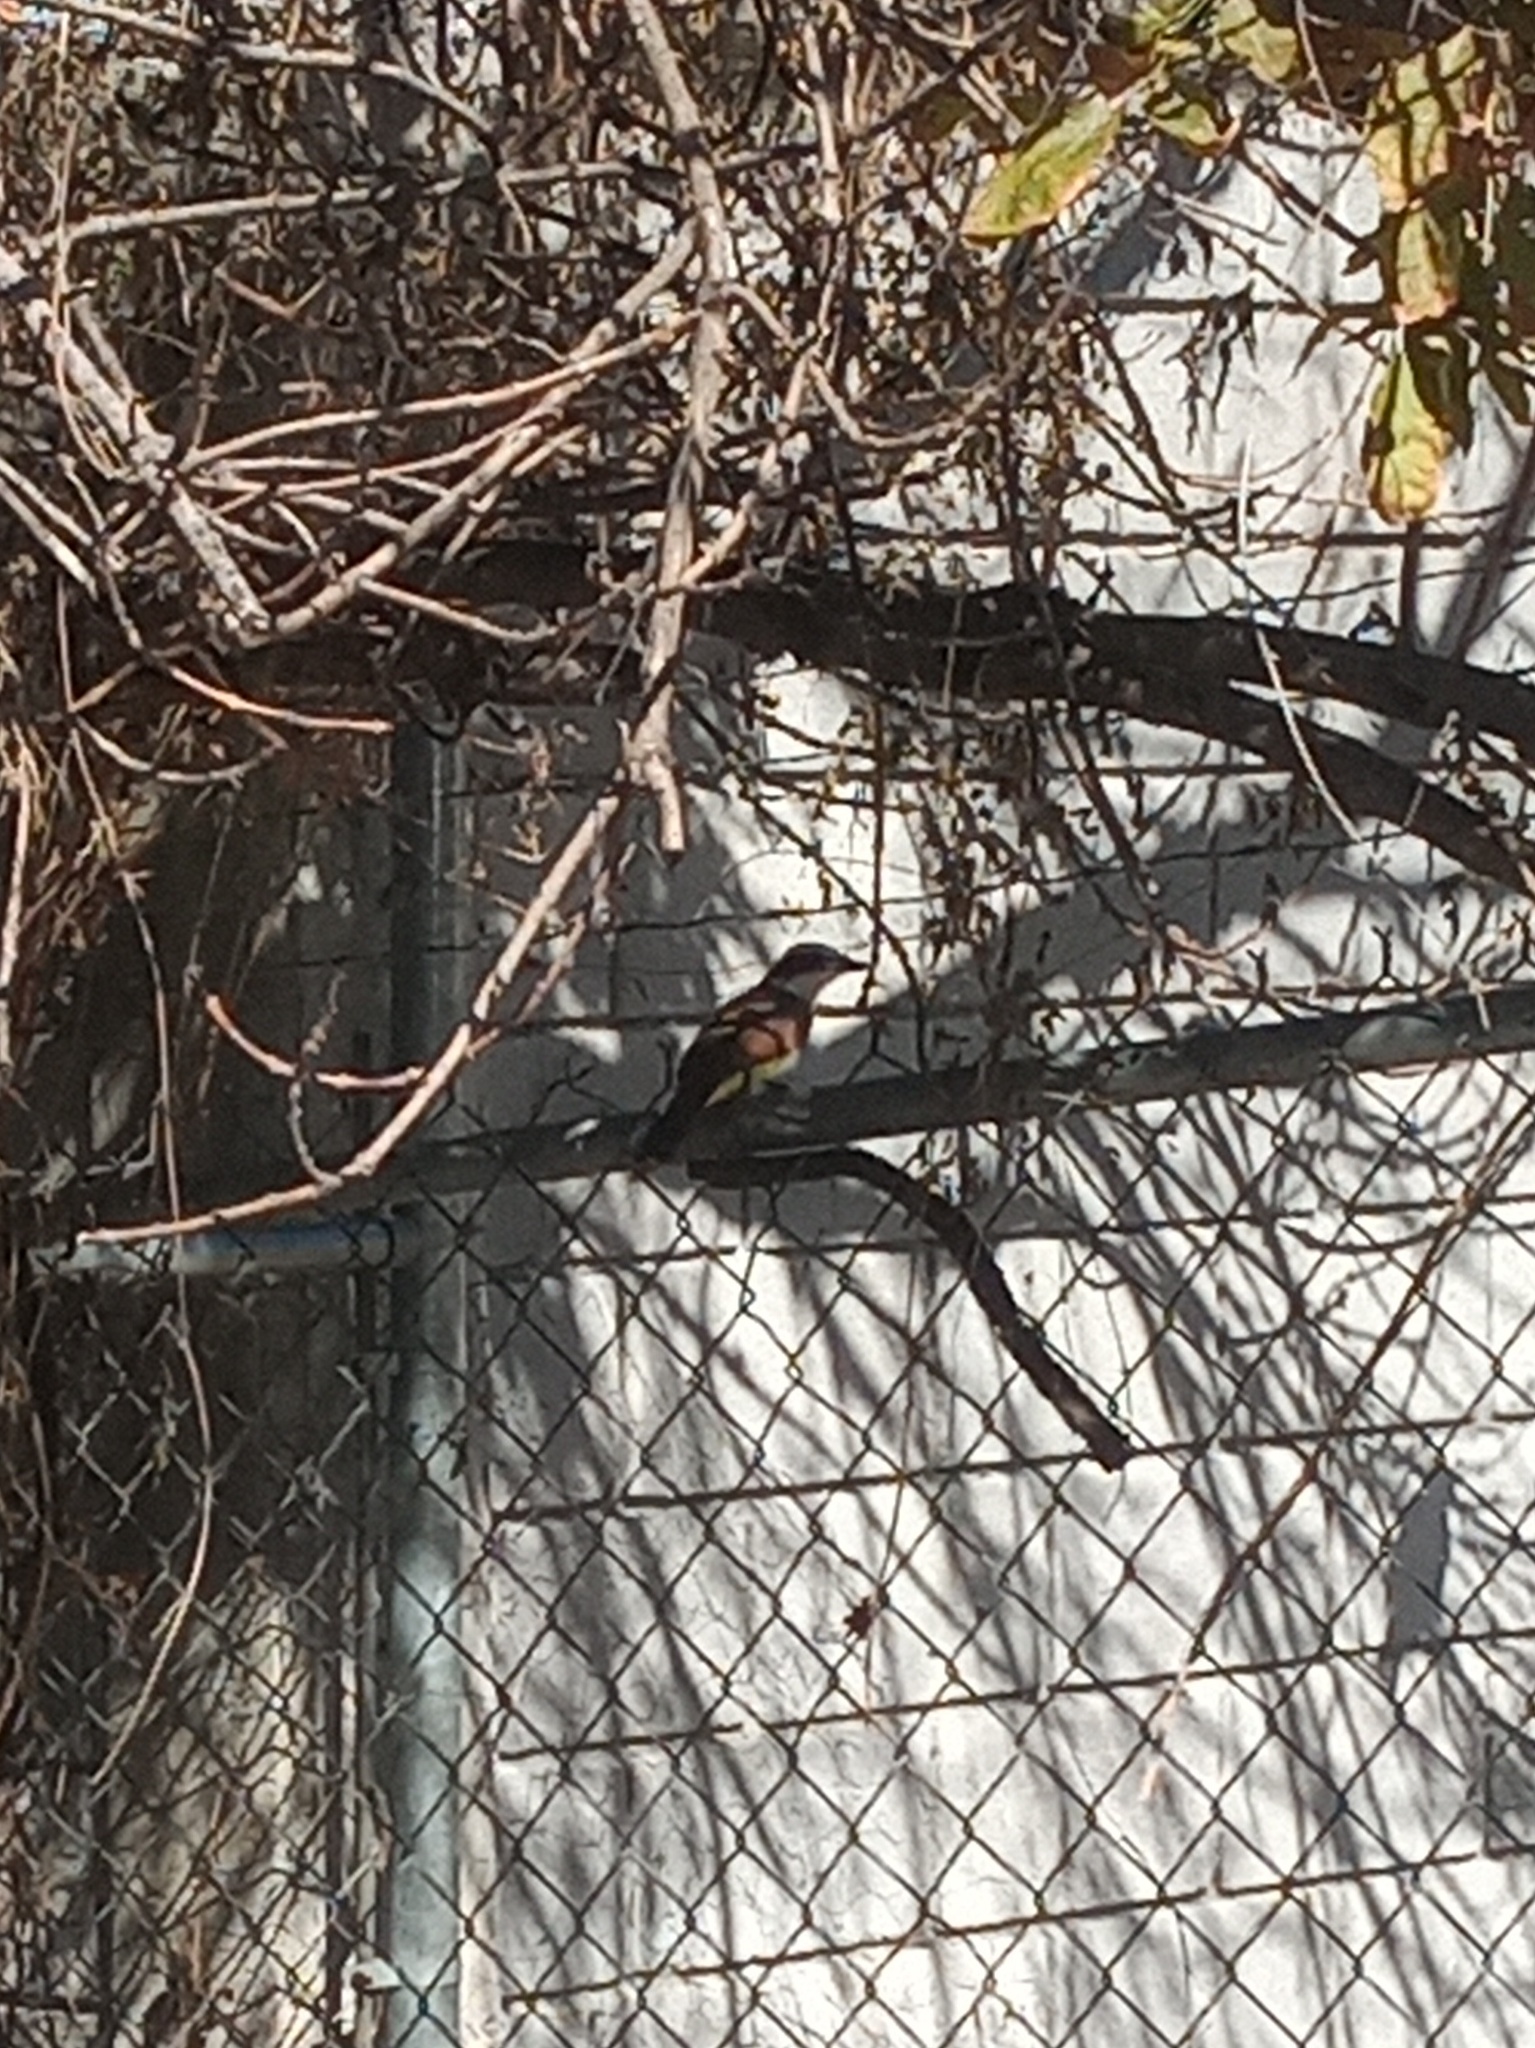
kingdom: Animalia
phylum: Chordata
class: Aves
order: Passeriformes
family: Tyrannidae
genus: Pitangus
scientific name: Pitangus sulphuratus
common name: Great kiskadee
